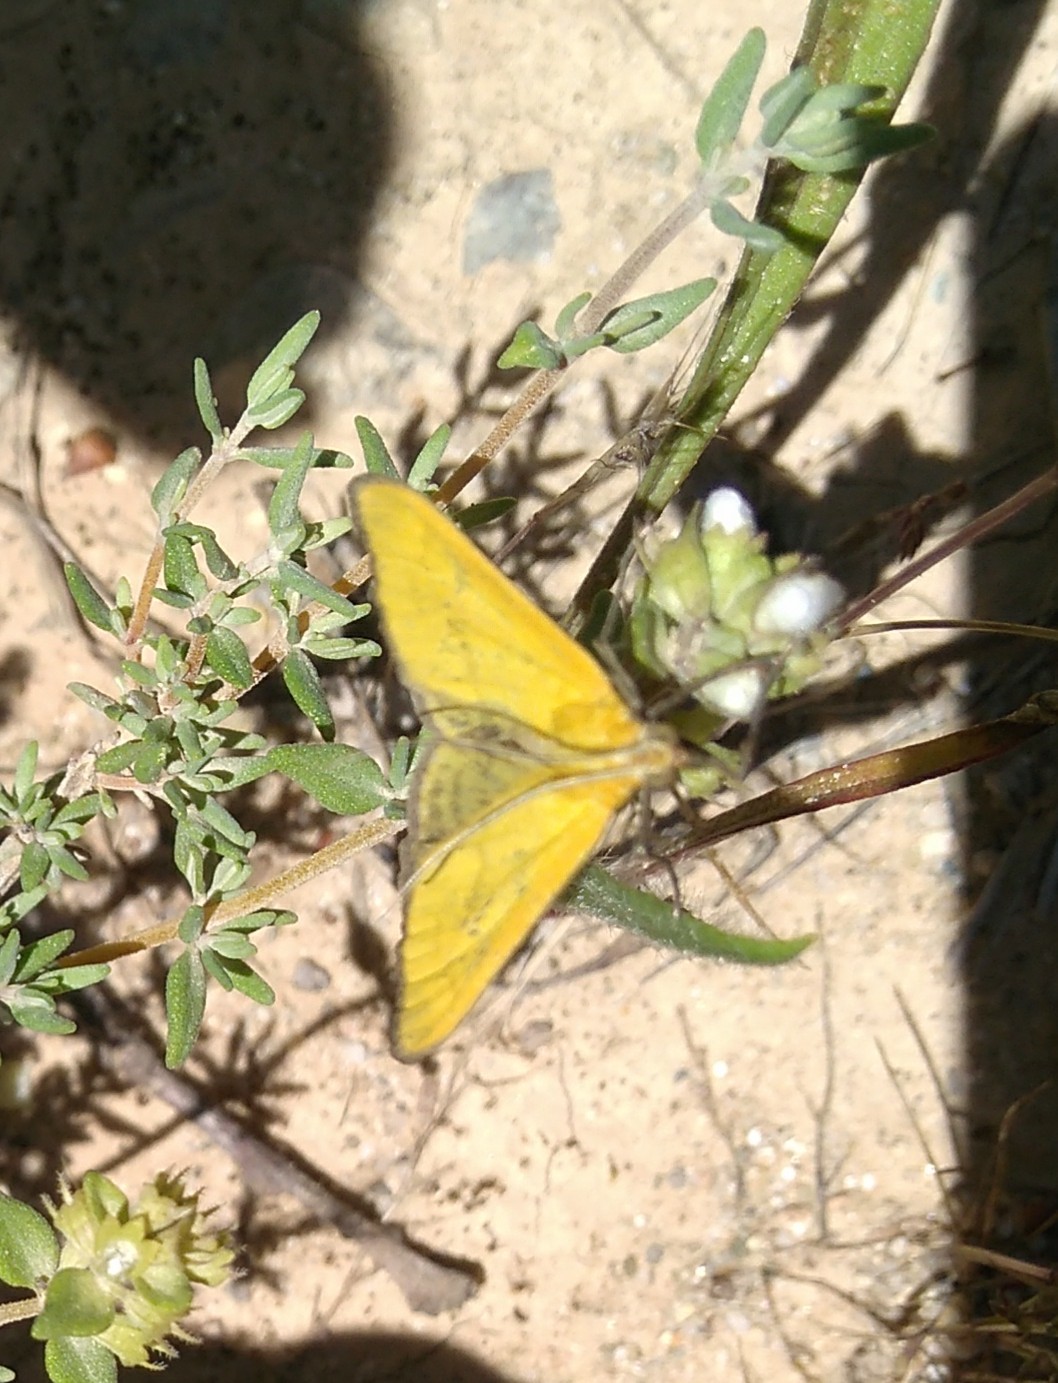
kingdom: Animalia
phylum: Arthropoda
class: Insecta
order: Lepidoptera
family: Crambidae
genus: Mecyna
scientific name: Mecyna lutealis
